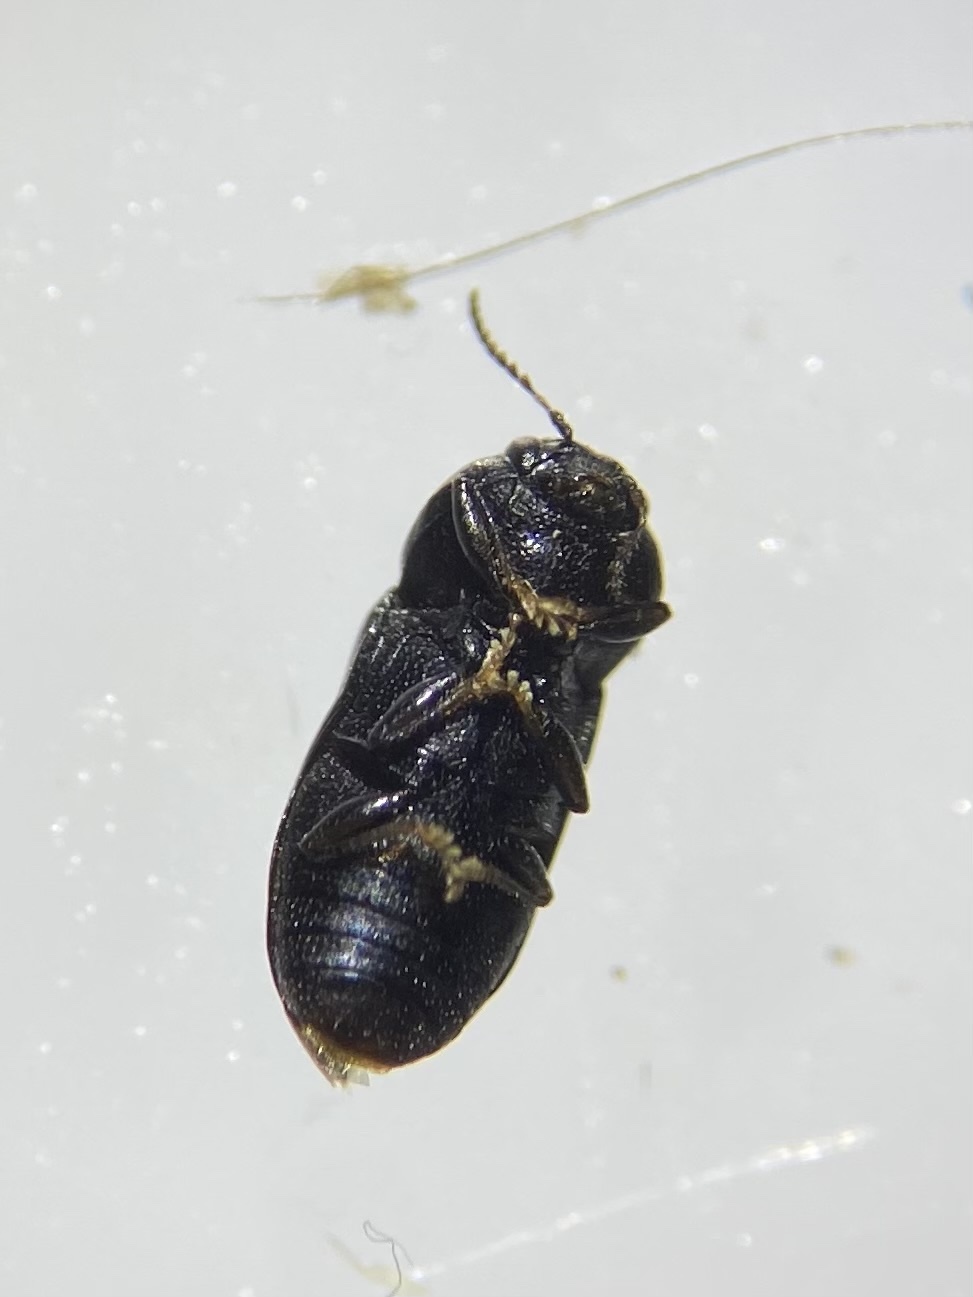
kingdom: Animalia
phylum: Arthropoda
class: Insecta
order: Coleoptera
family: Buprestidae
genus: Mastogenius
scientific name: Mastogenius subcyaneus
